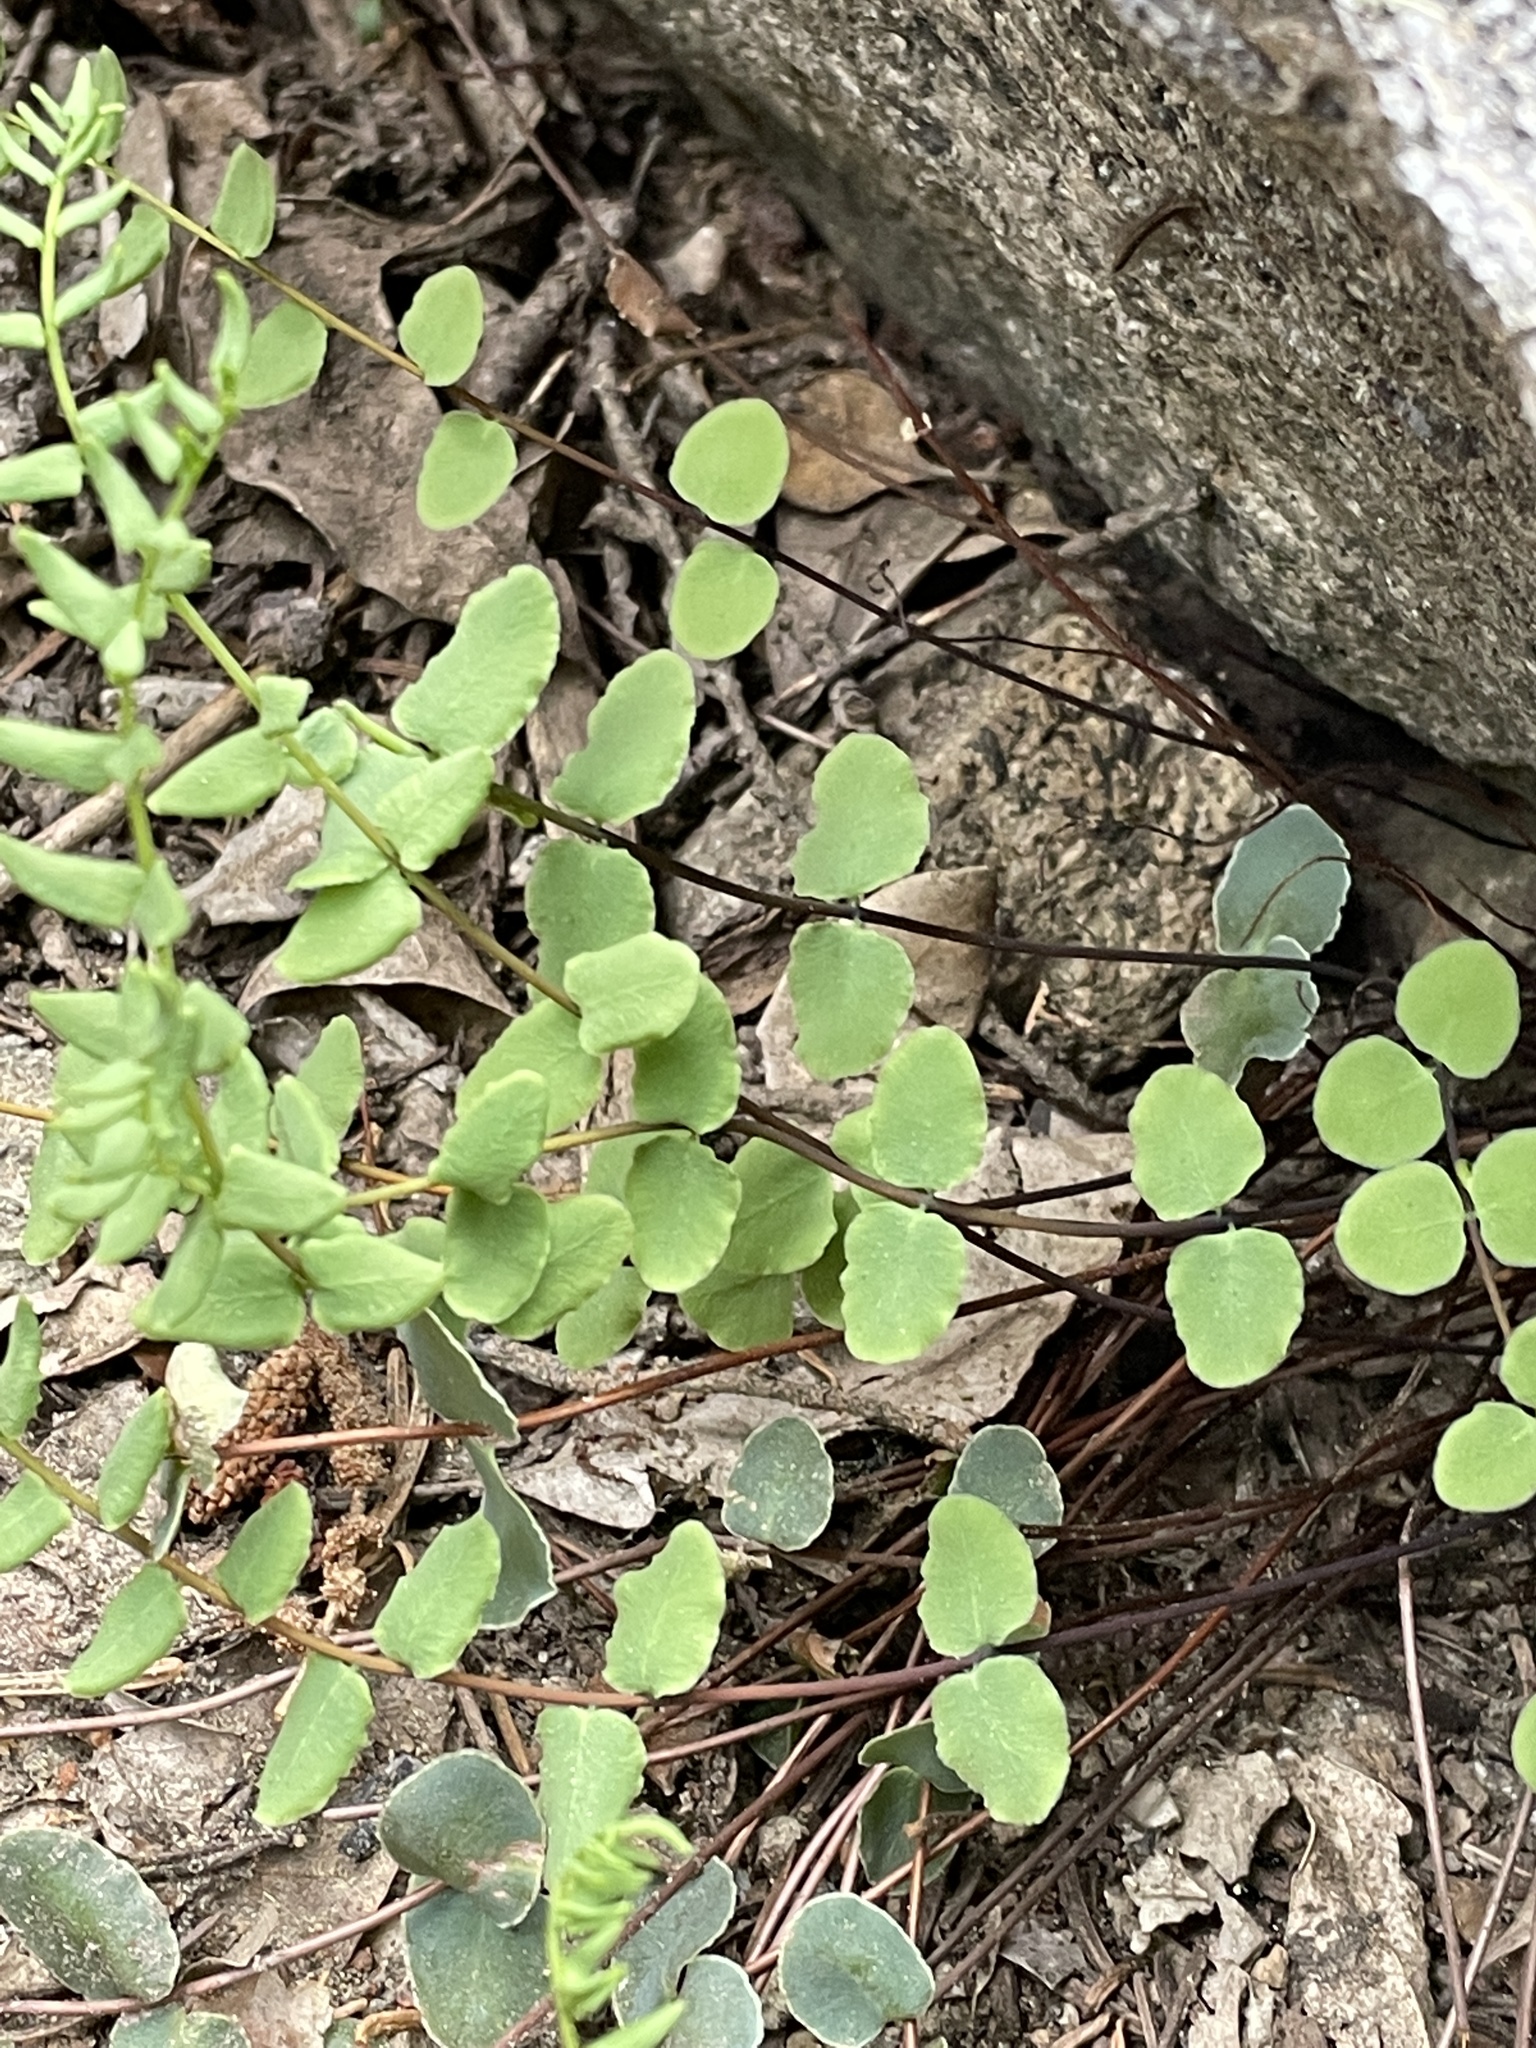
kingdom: Plantae
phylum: Tracheophyta
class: Polypodiopsida
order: Polypodiales
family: Pteridaceae
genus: Pellaea
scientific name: Pellaea bridgesii
